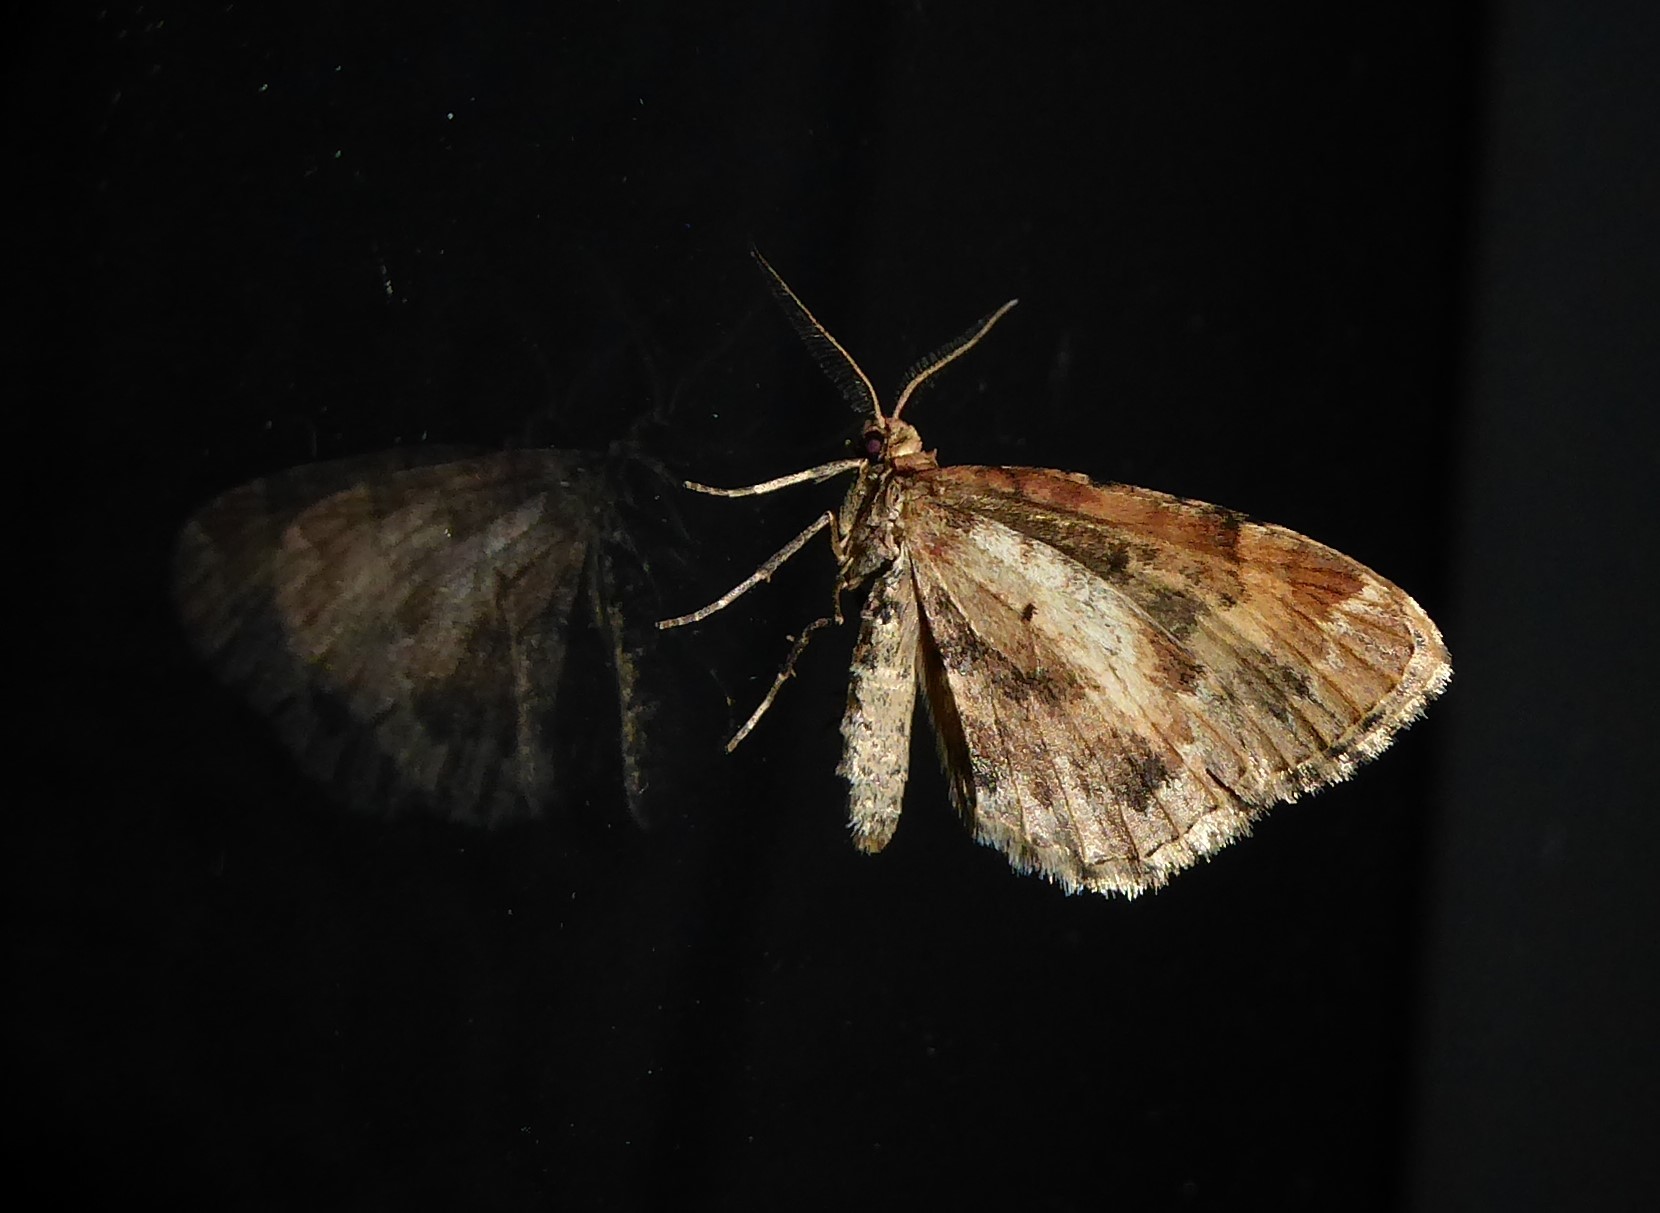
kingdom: Animalia
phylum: Arthropoda
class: Insecta
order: Lepidoptera
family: Geometridae
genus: Asaphodes
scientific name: Asaphodes aegrota
